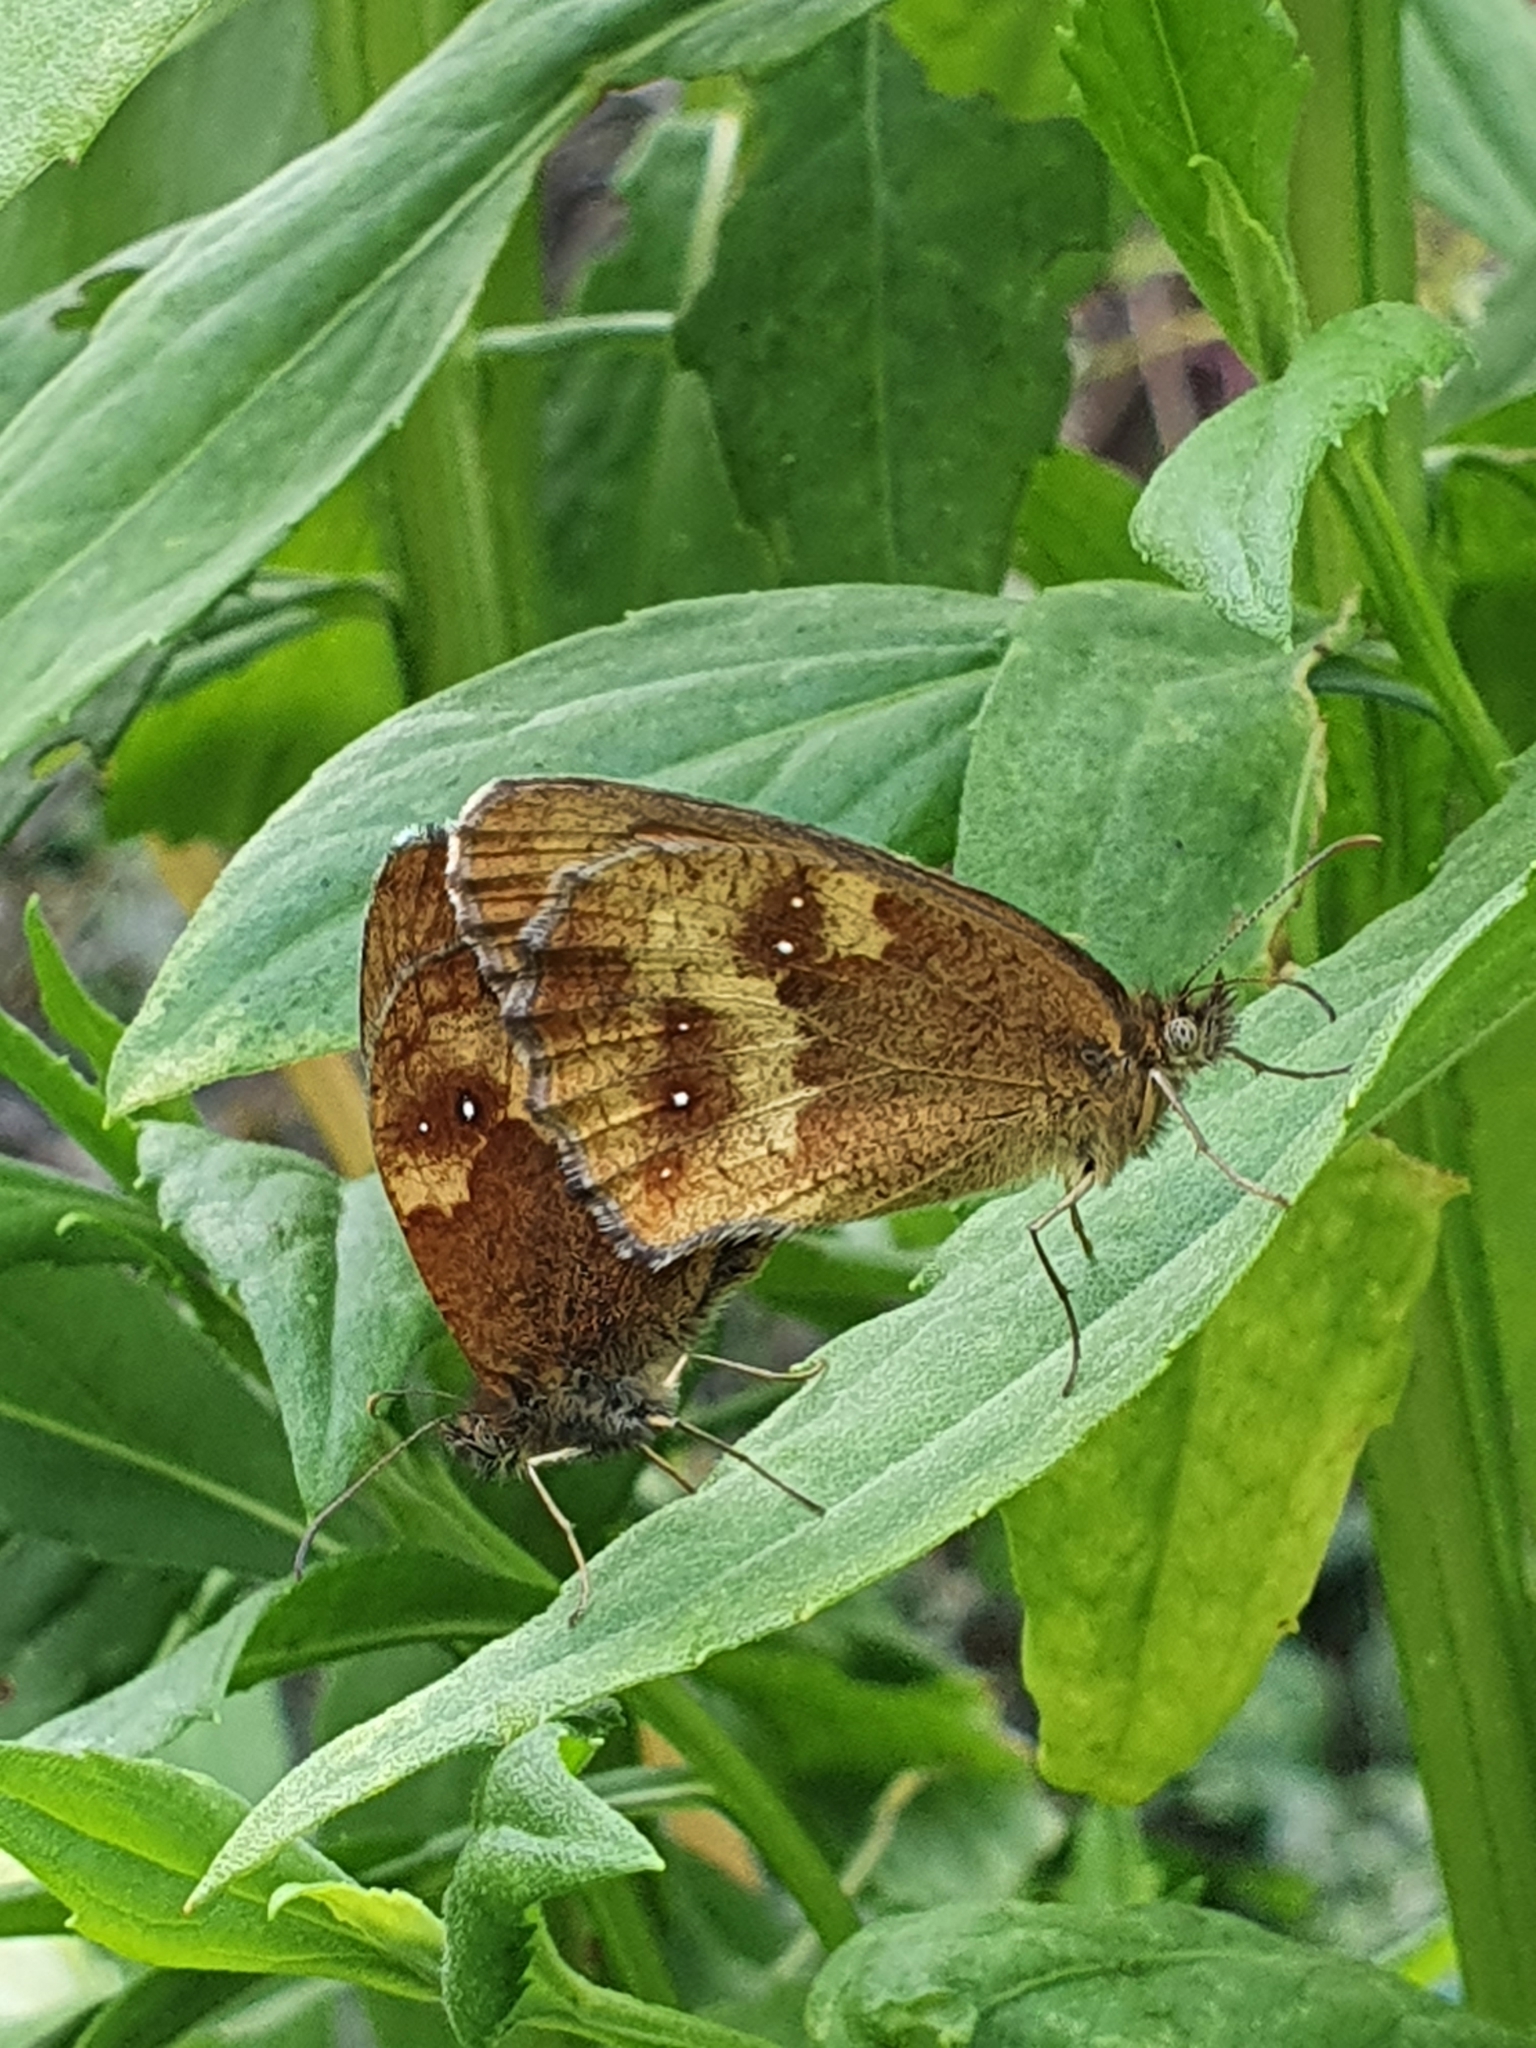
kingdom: Animalia
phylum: Arthropoda
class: Insecta
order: Lepidoptera
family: Nymphalidae
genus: Pyronia
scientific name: Pyronia tithonus
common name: Gatekeeper
